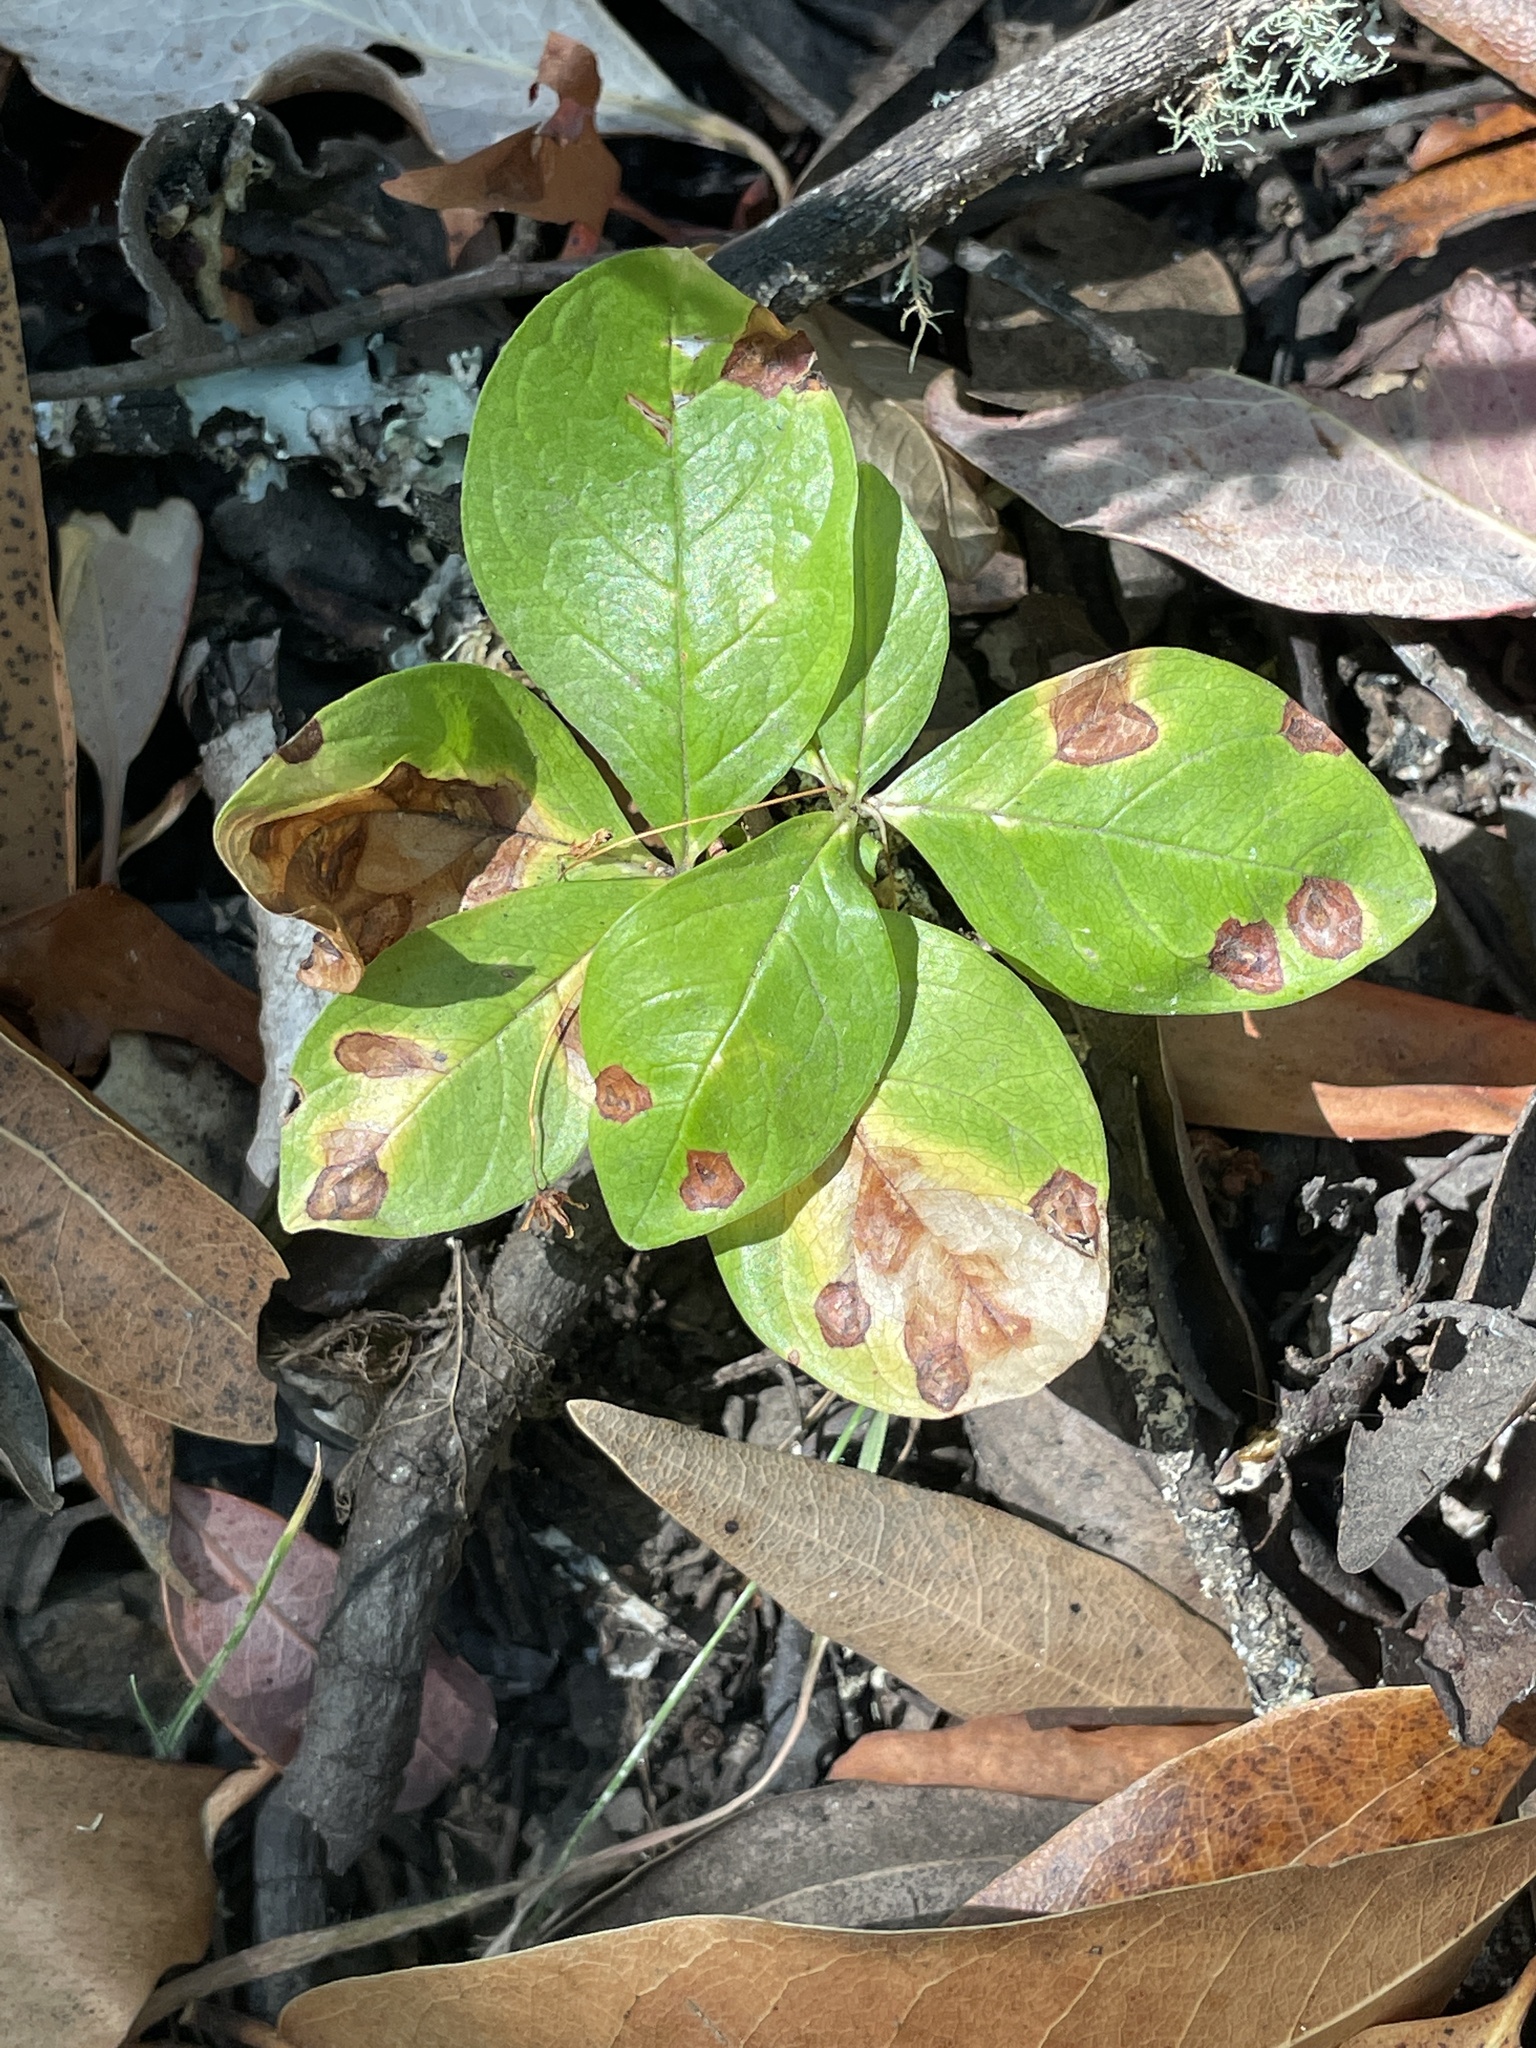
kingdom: Plantae
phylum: Tracheophyta
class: Magnoliopsida
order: Ericales
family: Primulaceae
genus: Lysimachia
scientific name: Lysimachia latifolia
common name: Pacific starflower
